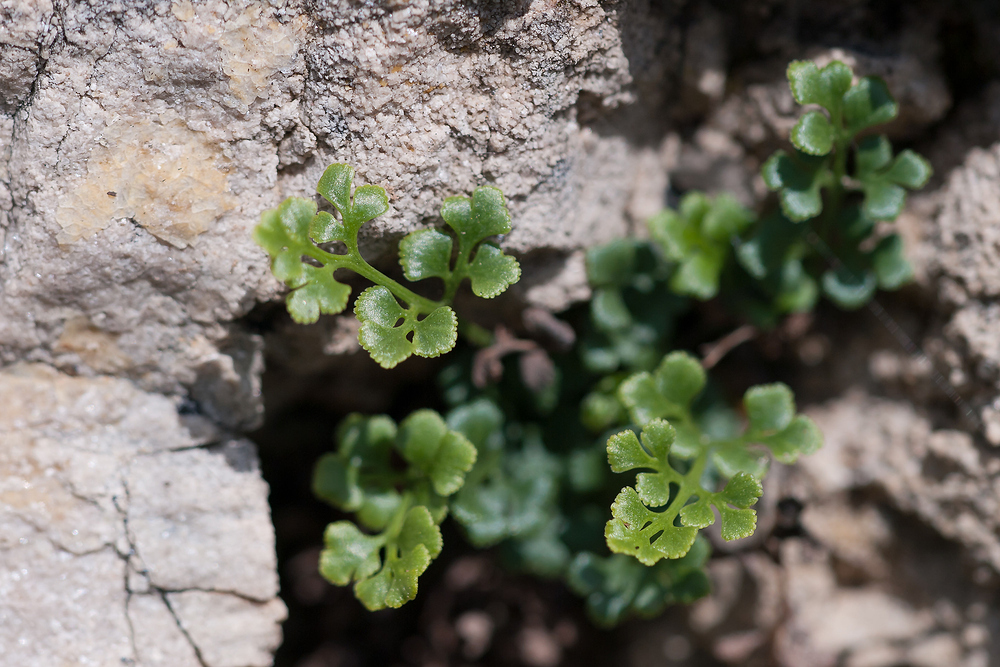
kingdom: Plantae
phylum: Tracheophyta
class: Polypodiopsida
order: Polypodiales
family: Aspleniaceae
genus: Asplenium
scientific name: Asplenium ruta-muraria
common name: Wall-rue
